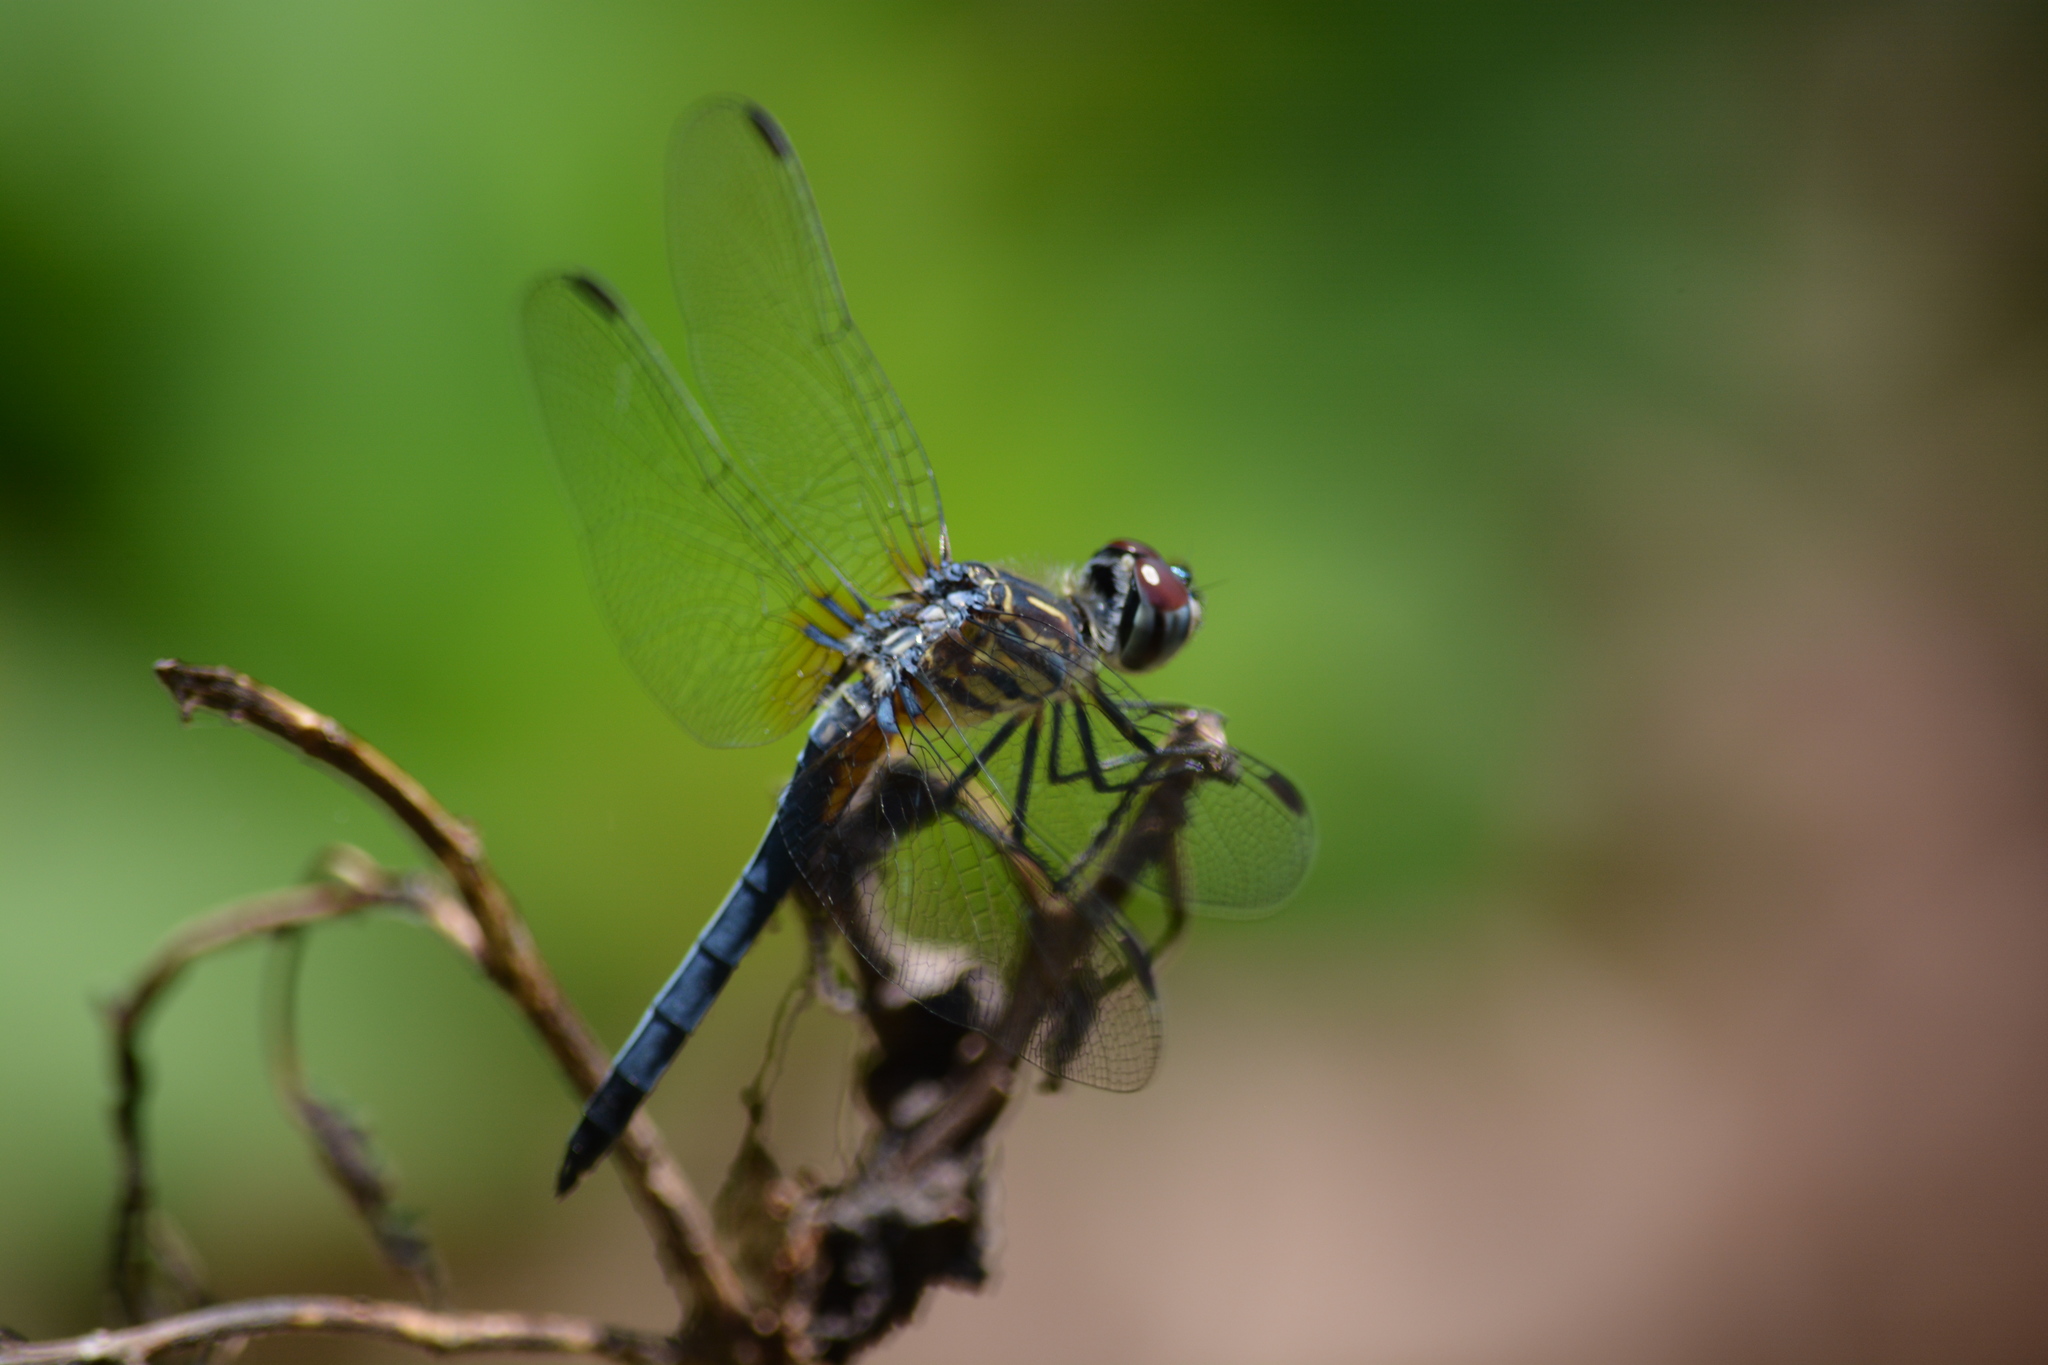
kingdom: Animalia
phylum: Arthropoda
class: Insecta
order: Odonata
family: Libellulidae
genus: Pachydiplax
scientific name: Pachydiplax longipennis
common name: Blue dasher
